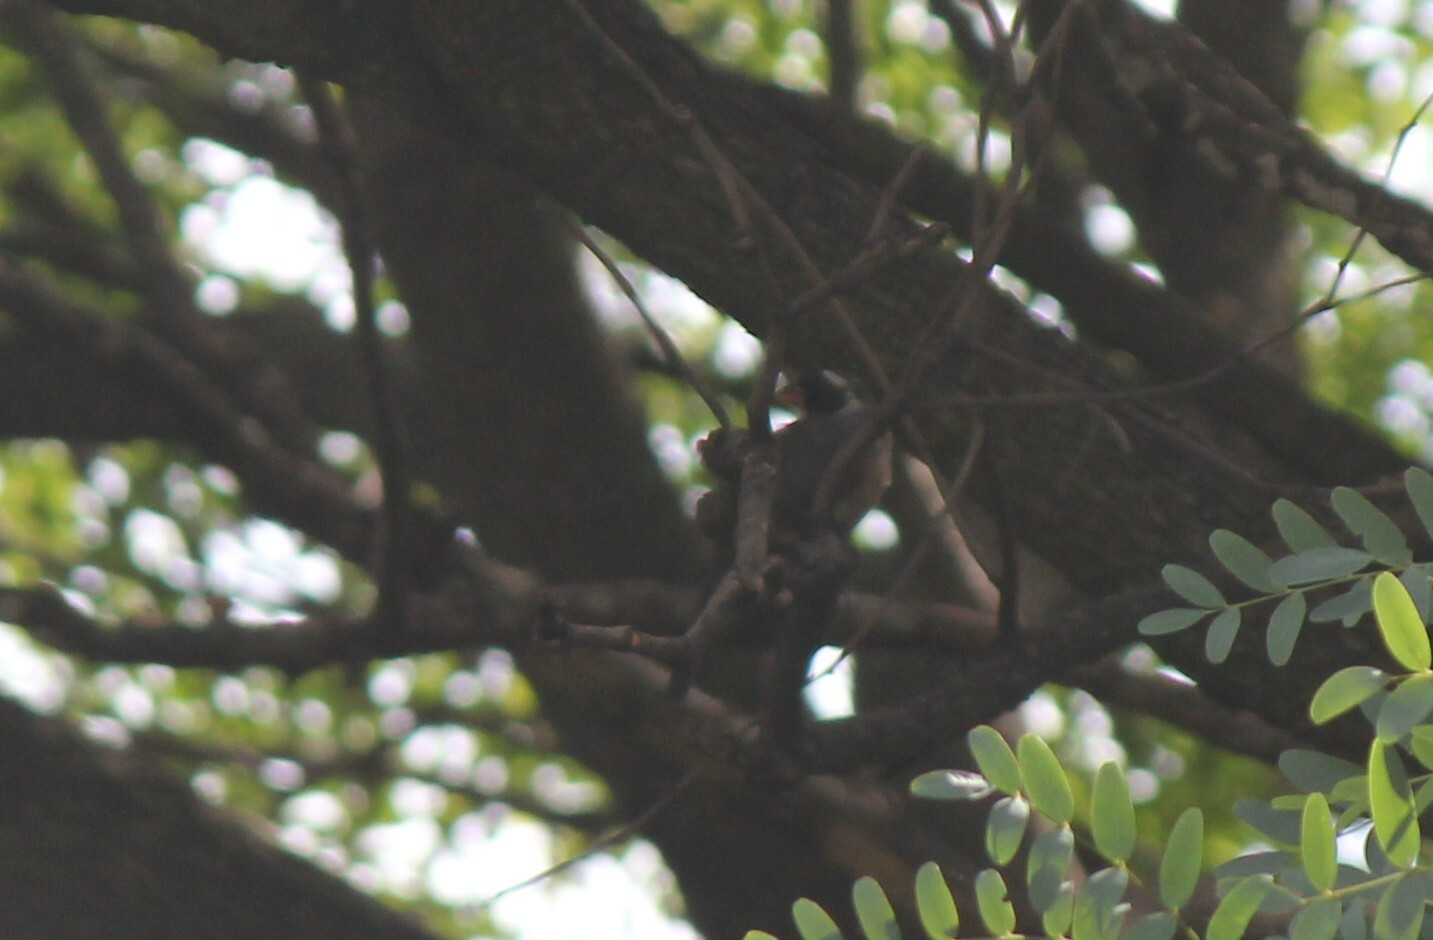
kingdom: Animalia
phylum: Chordata
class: Aves
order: Passeriformes
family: Thraupidae
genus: Saltator
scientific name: Saltator aurantiirostris
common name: Golden-billed saltator
